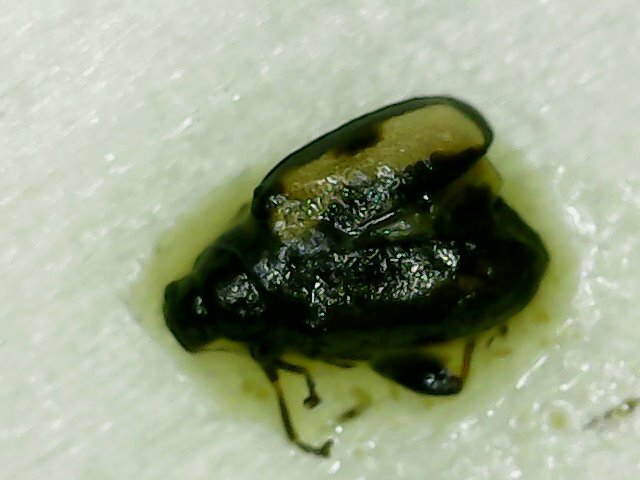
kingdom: Animalia
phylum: Arthropoda
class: Insecta
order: Coleoptera
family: Chrysomelidae
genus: Phyllotreta
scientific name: Phyllotreta striolata
